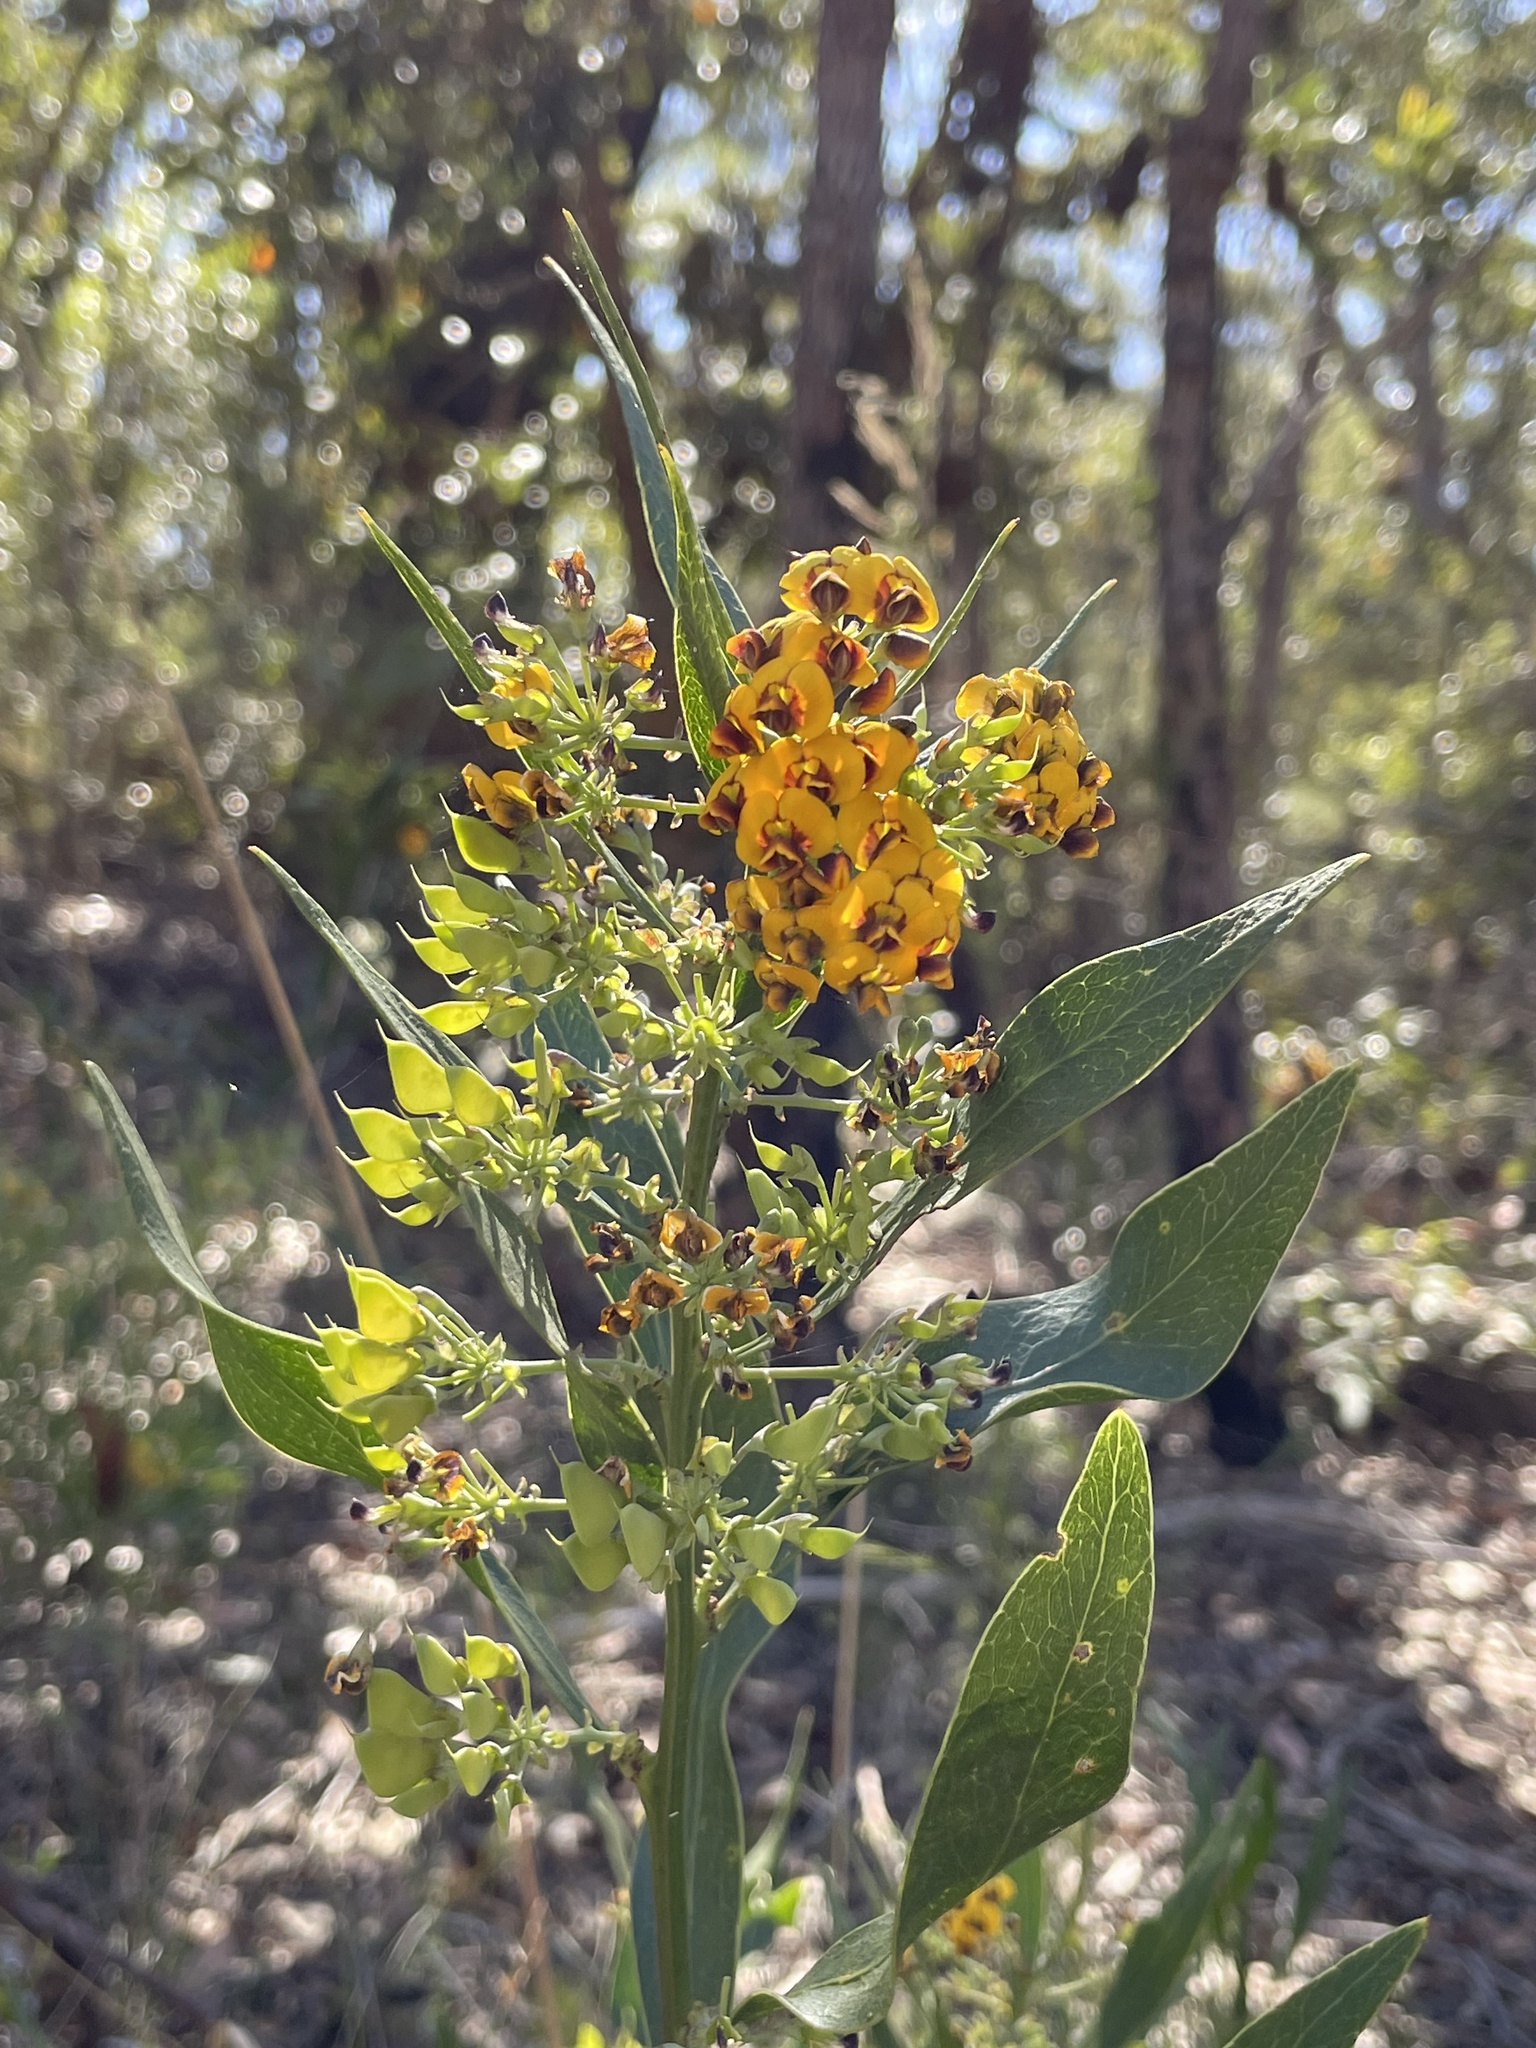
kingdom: Plantae
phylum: Tracheophyta
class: Magnoliopsida
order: Fabales
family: Fabaceae
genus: Daviesia
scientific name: Daviesia mimosoides
